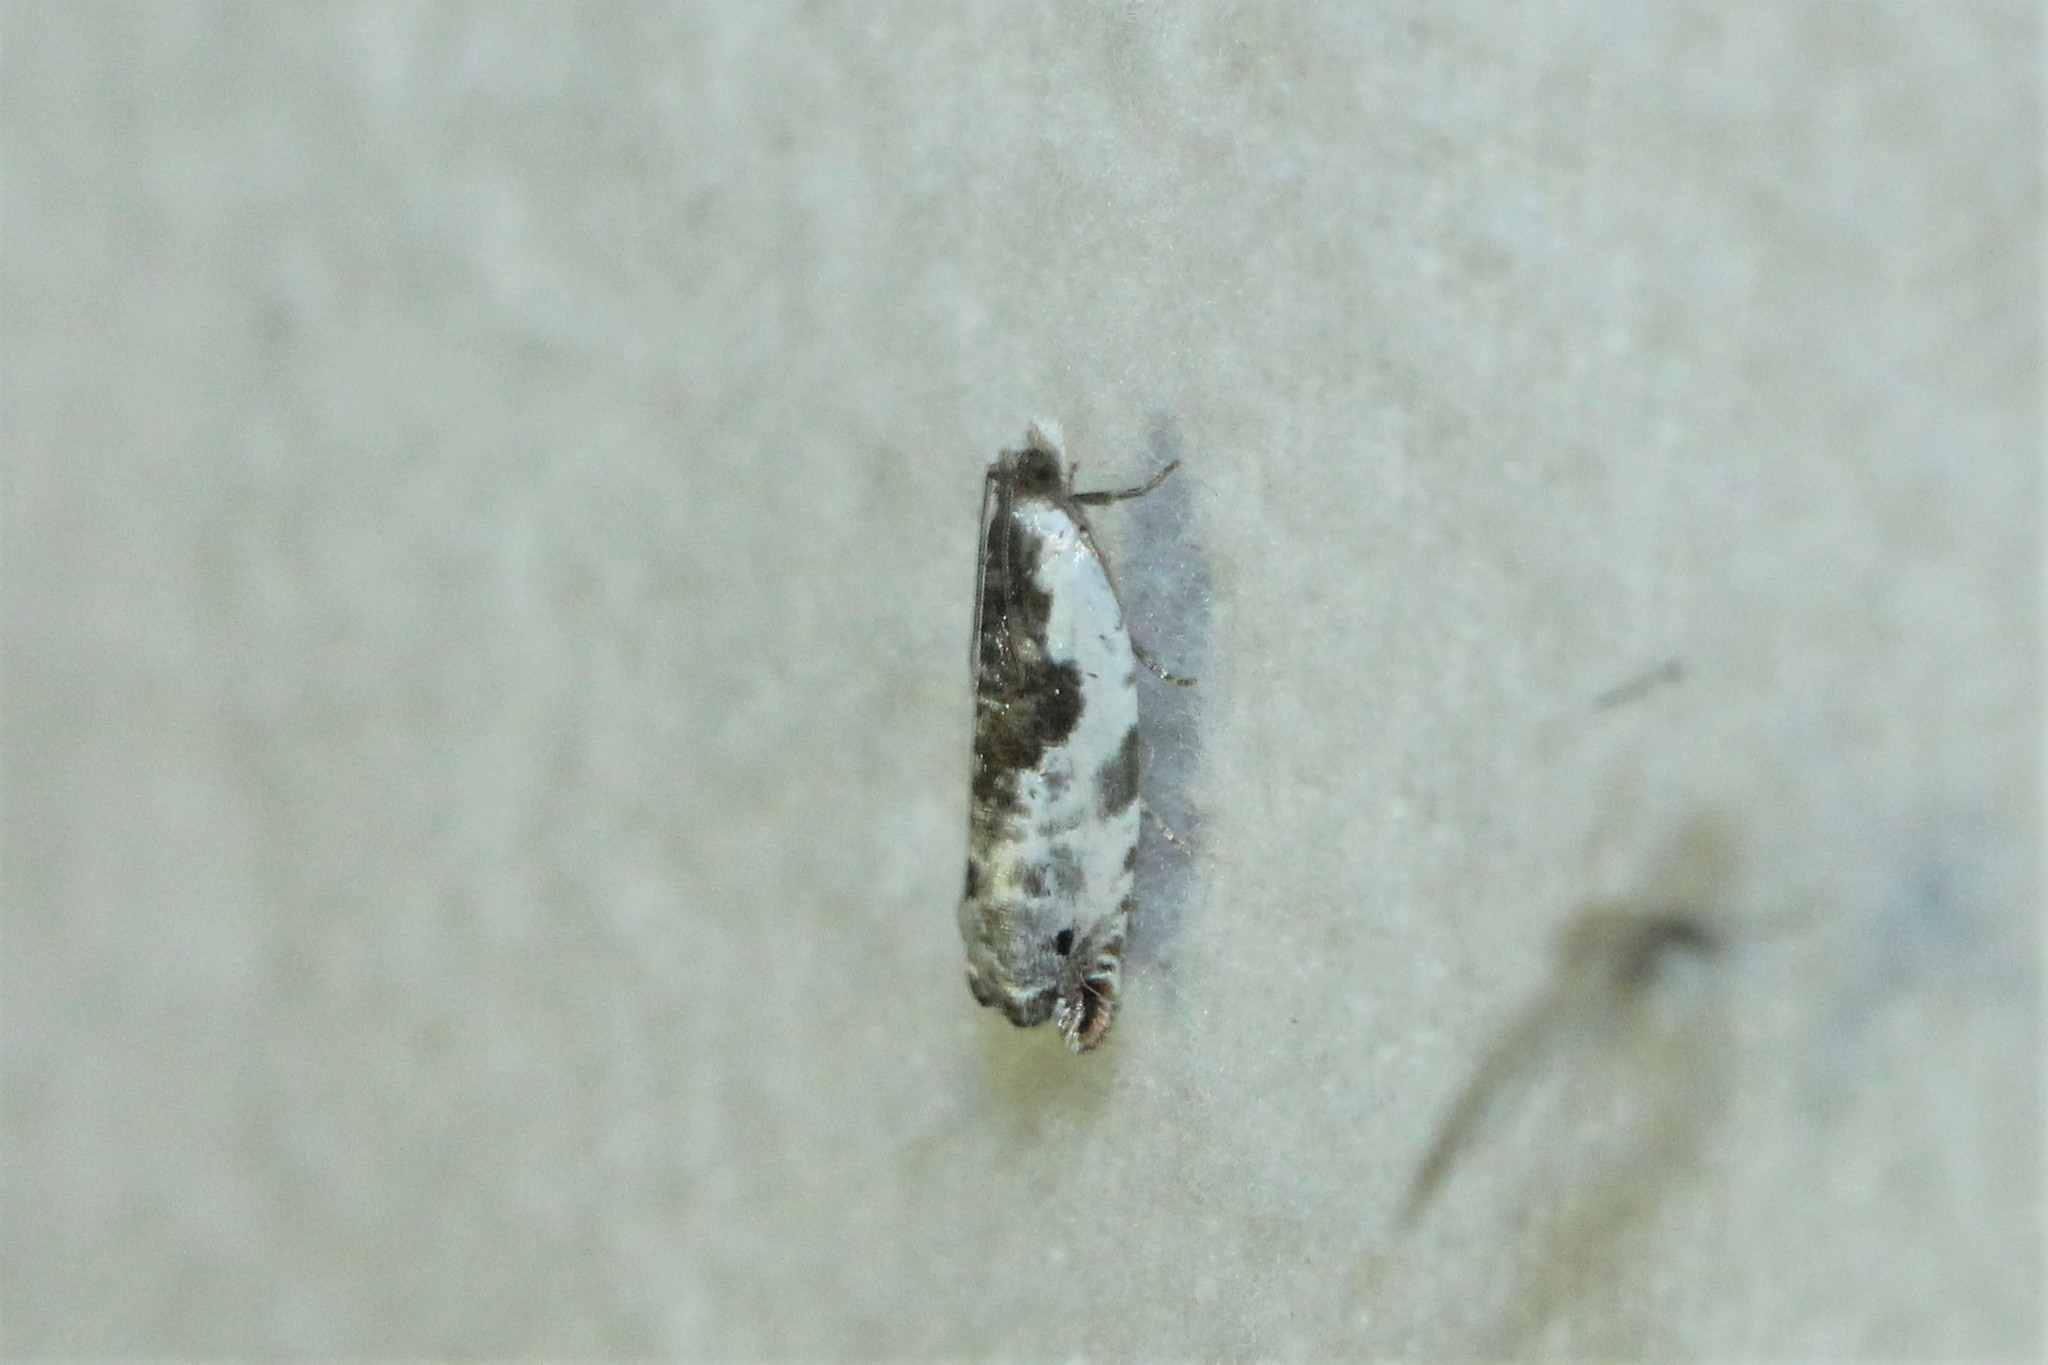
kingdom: Animalia
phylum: Arthropoda
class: Insecta
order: Lepidoptera
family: Tortricidae
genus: Ancylis
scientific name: Ancylis nubeculana
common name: Little cloud ancylis moth
